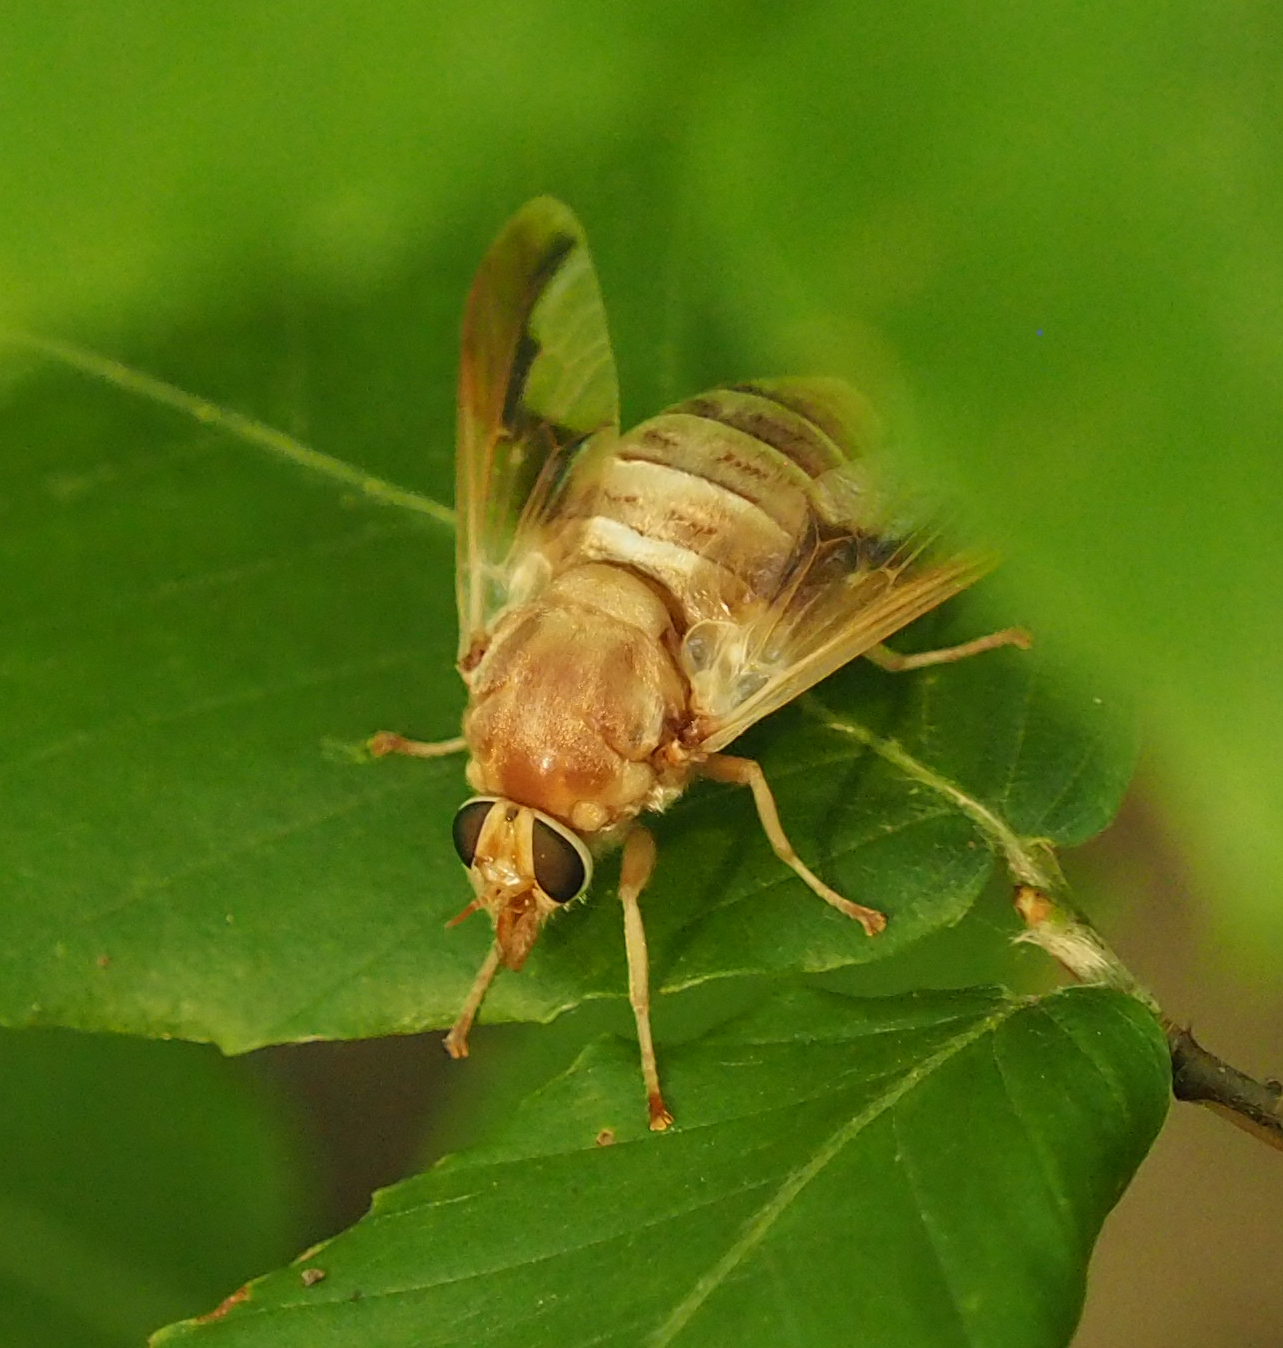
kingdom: Animalia
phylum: Arthropoda
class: Insecta
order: Diptera
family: Tabanidae
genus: Goniops
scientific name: Goniops chrysocoma
